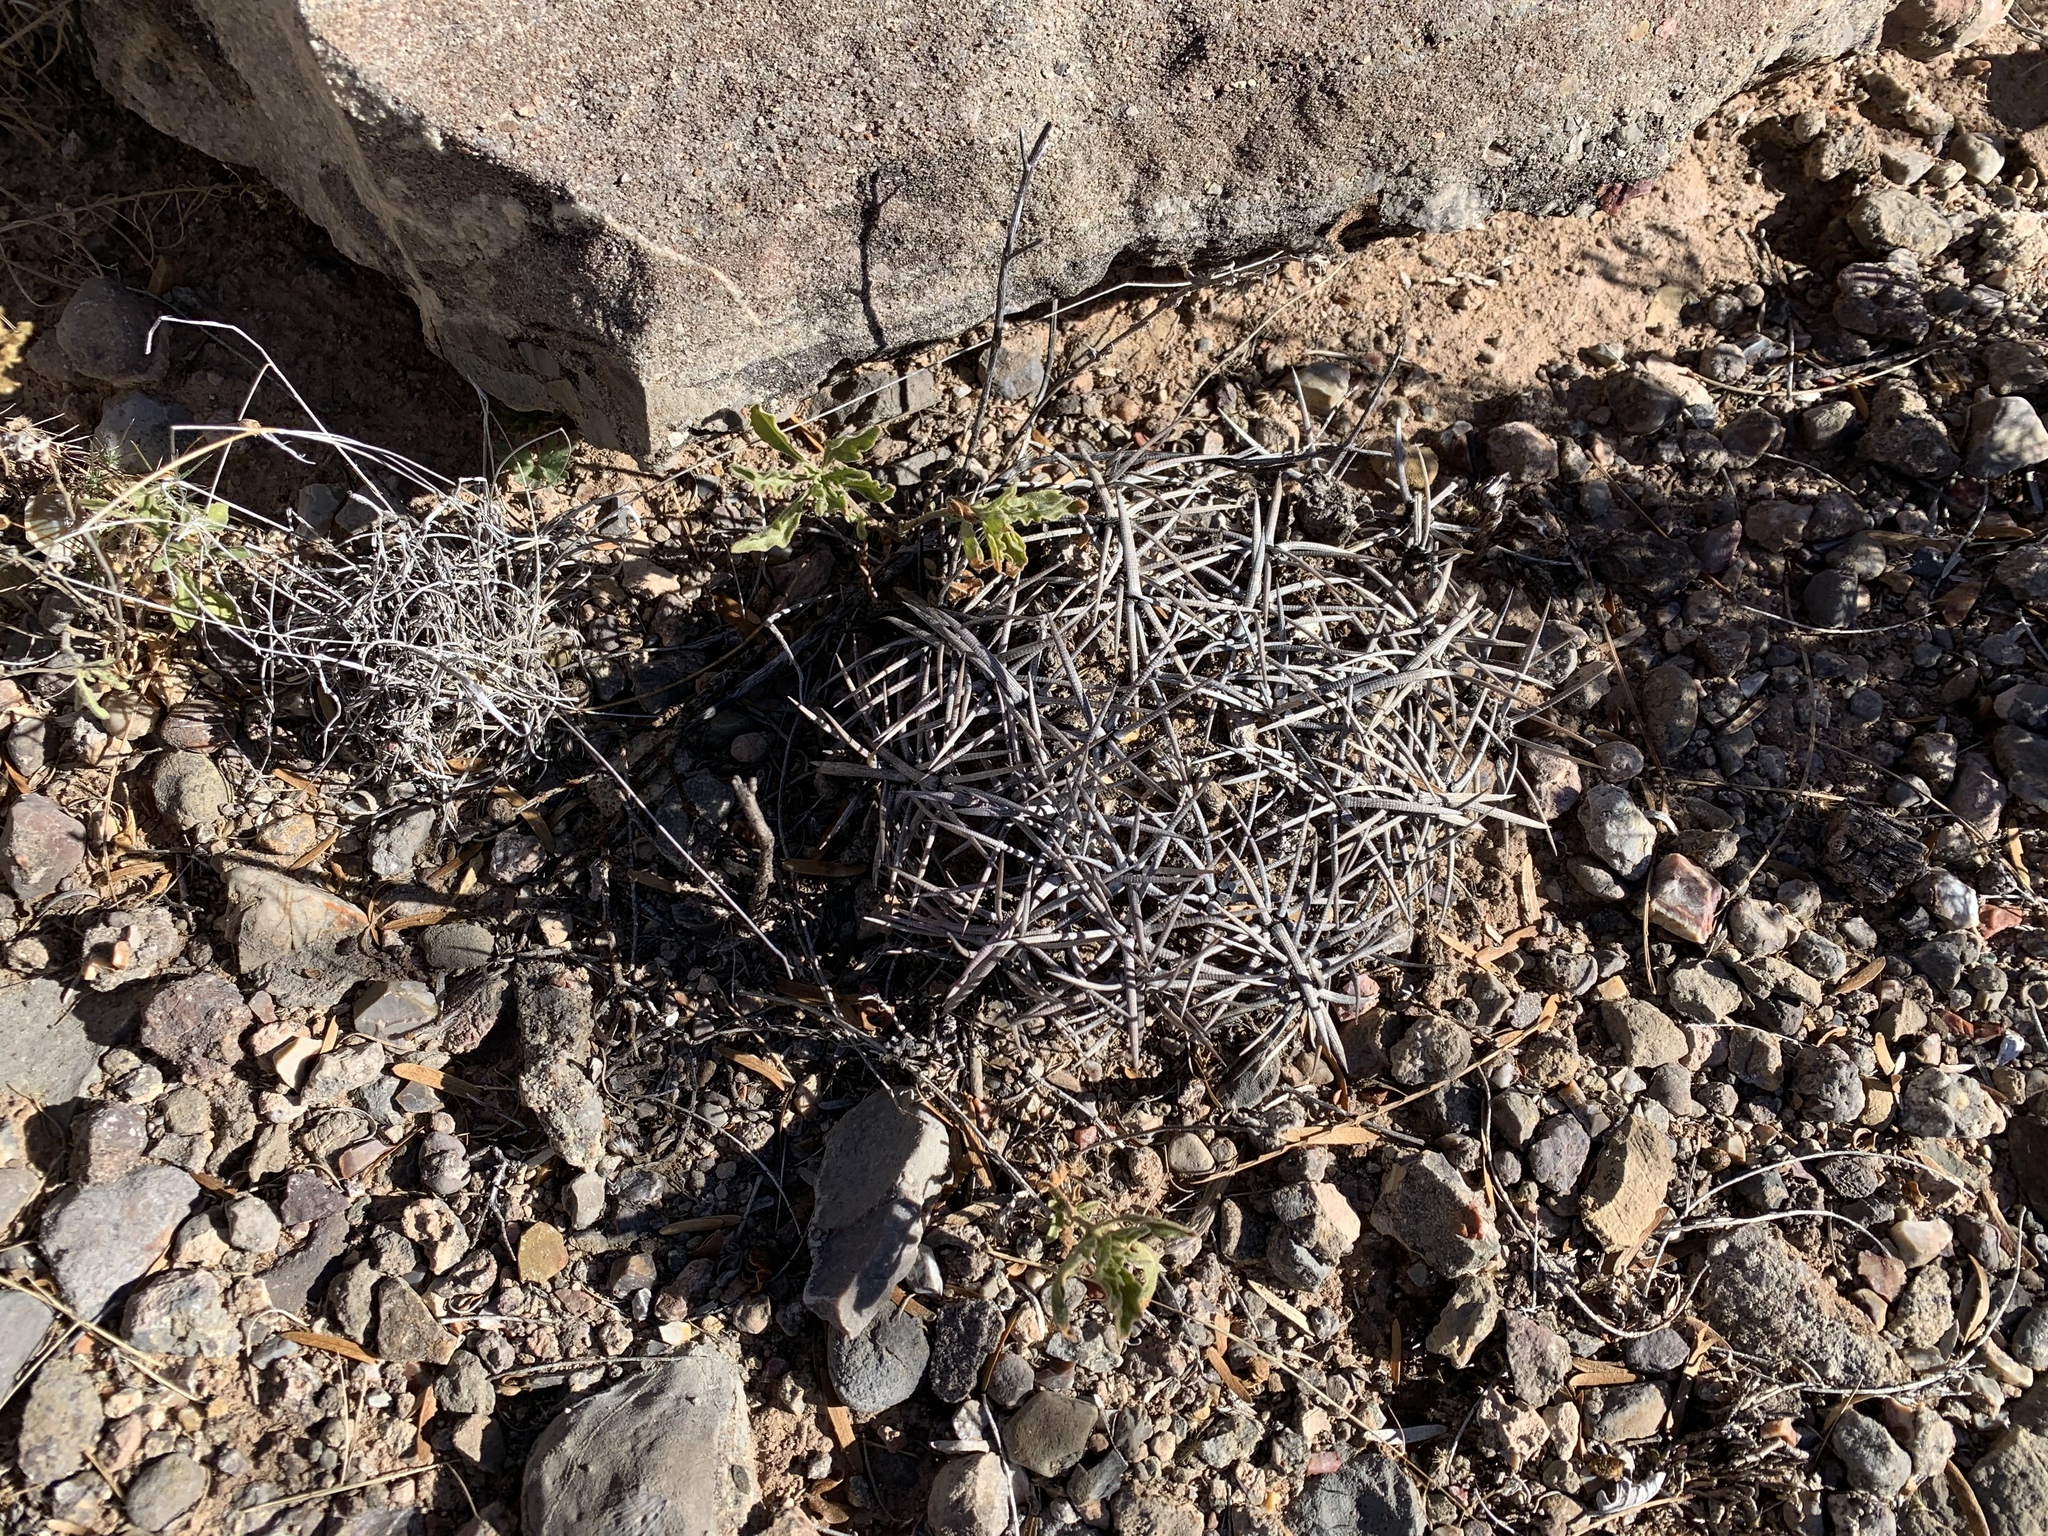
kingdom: Plantae
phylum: Tracheophyta
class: Magnoliopsida
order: Caryophyllales
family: Cactaceae
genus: Echinocactus
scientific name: Echinocactus horizonthalonius
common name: Devilshead
